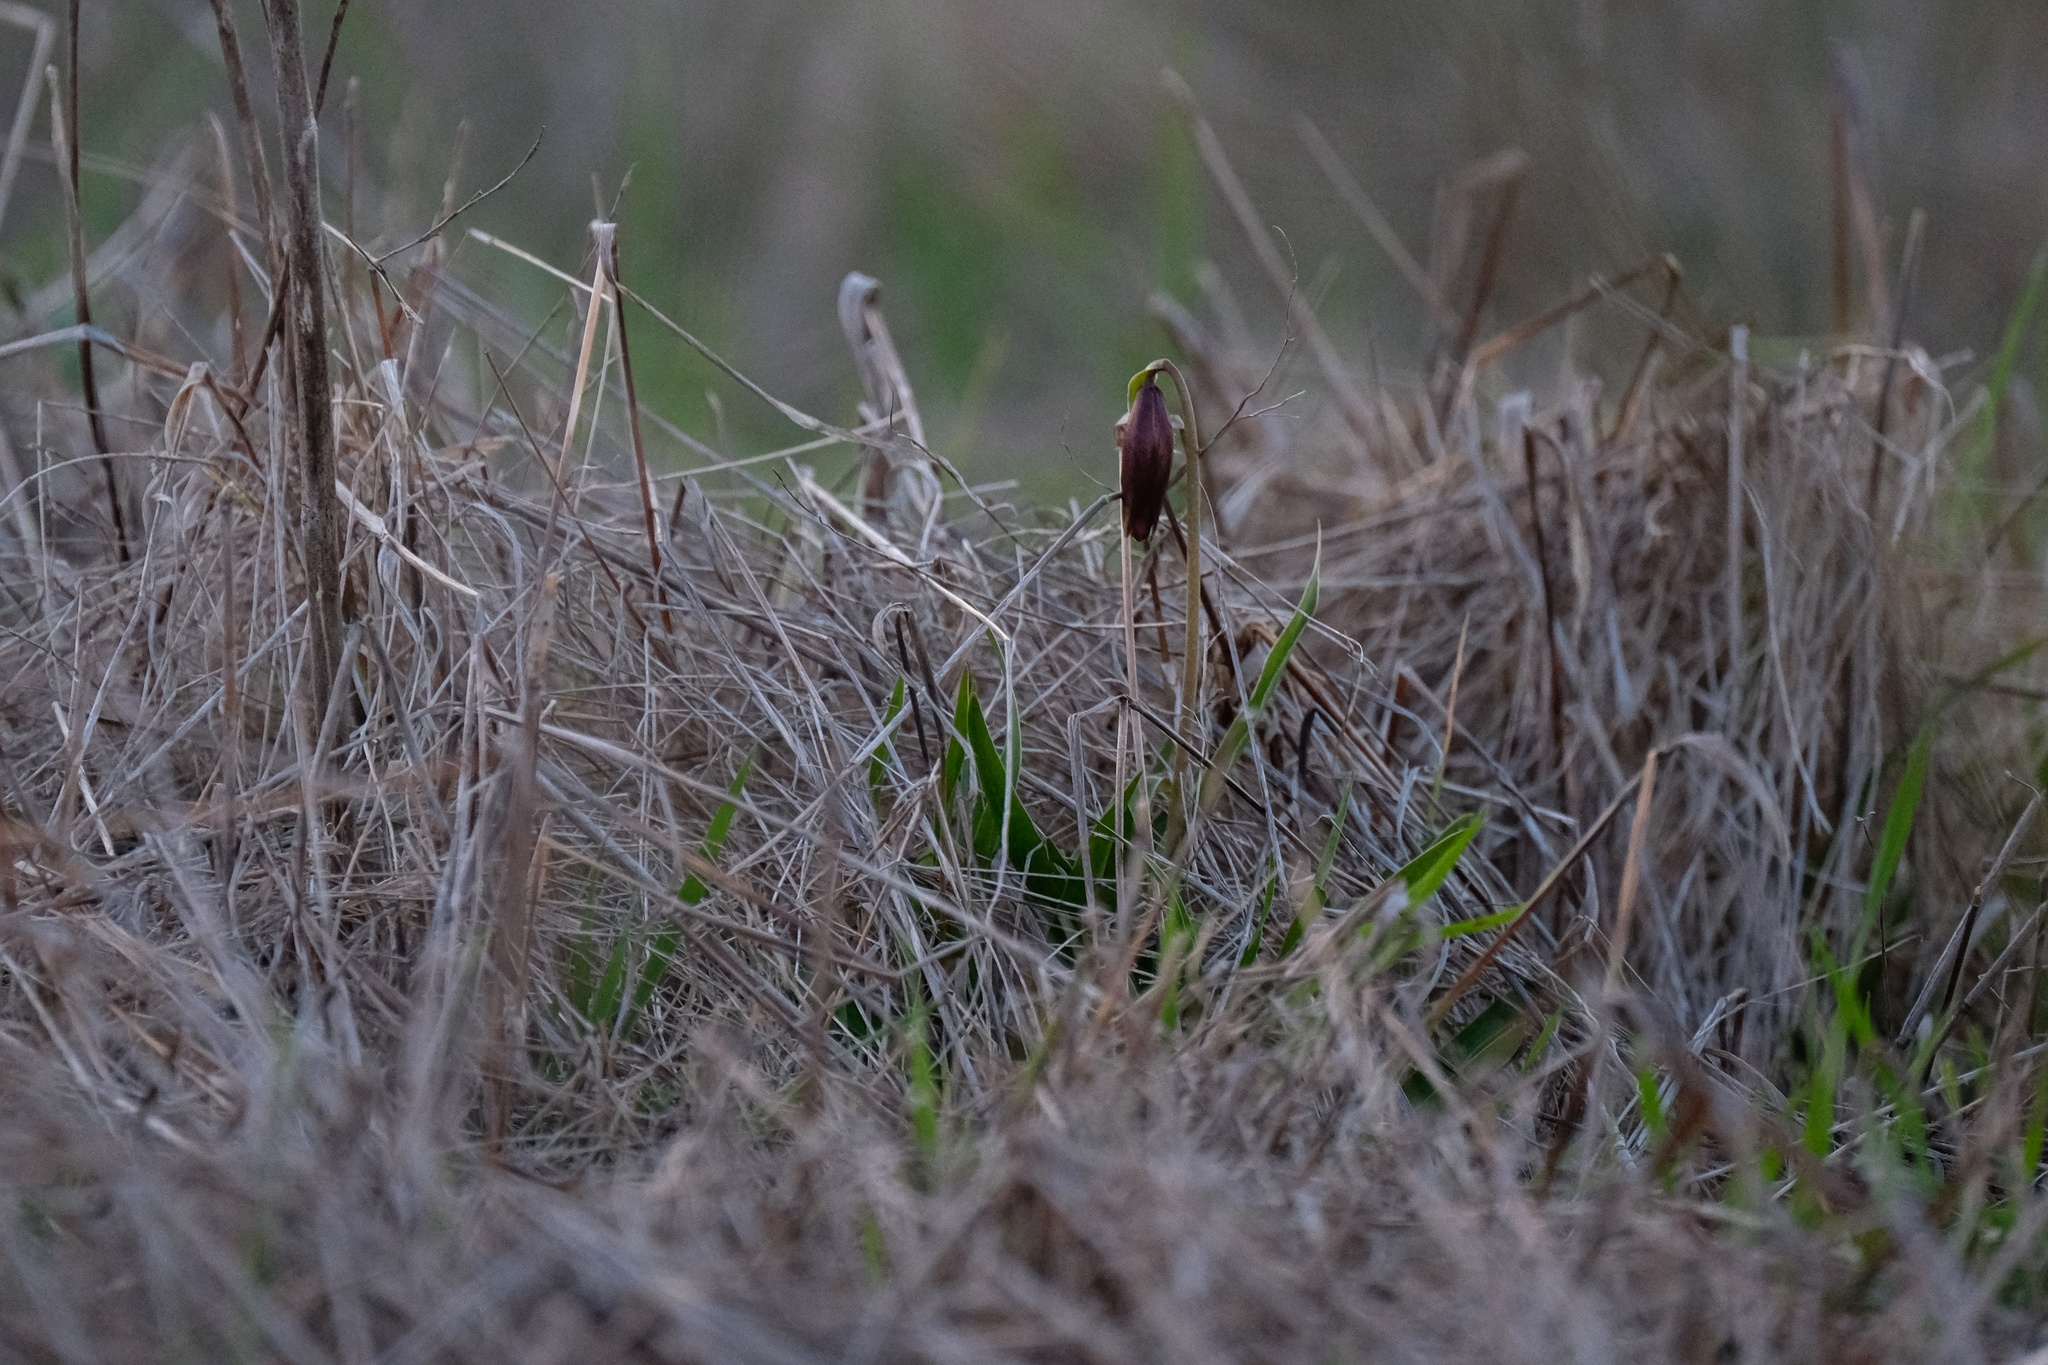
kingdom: Plantae
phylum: Tracheophyta
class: Liliopsida
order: Liliales
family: Liliaceae
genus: Fritillaria
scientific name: Fritillaria biflora
